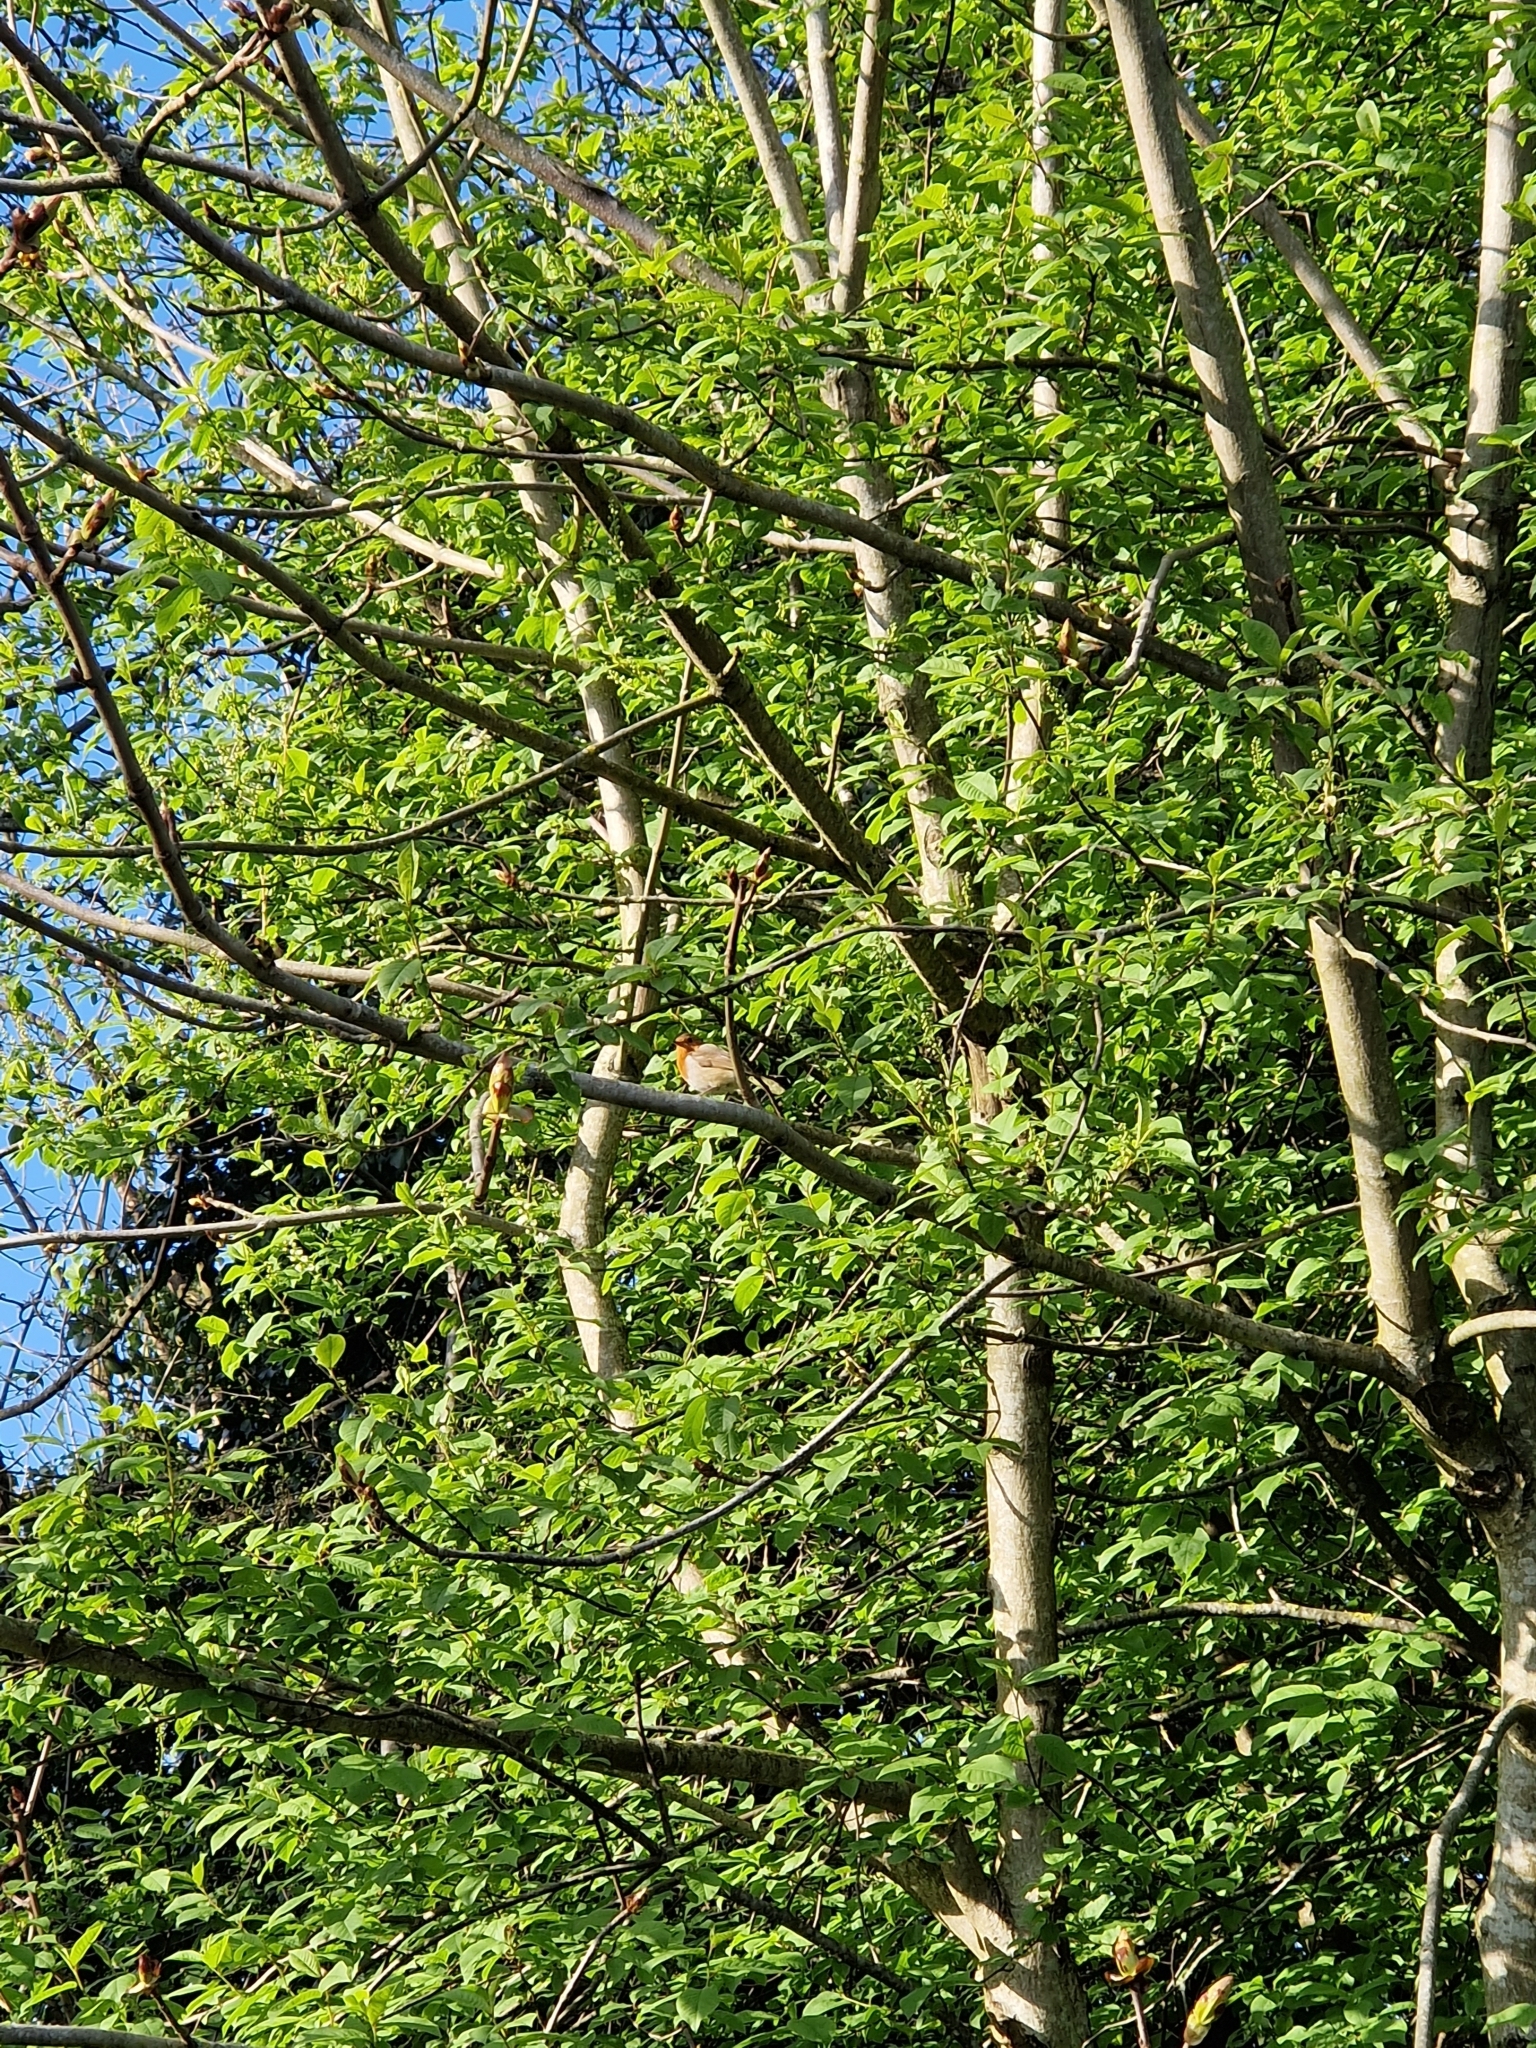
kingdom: Animalia
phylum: Chordata
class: Aves
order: Passeriformes
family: Muscicapidae
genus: Erithacus
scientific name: Erithacus rubecula
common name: European robin
